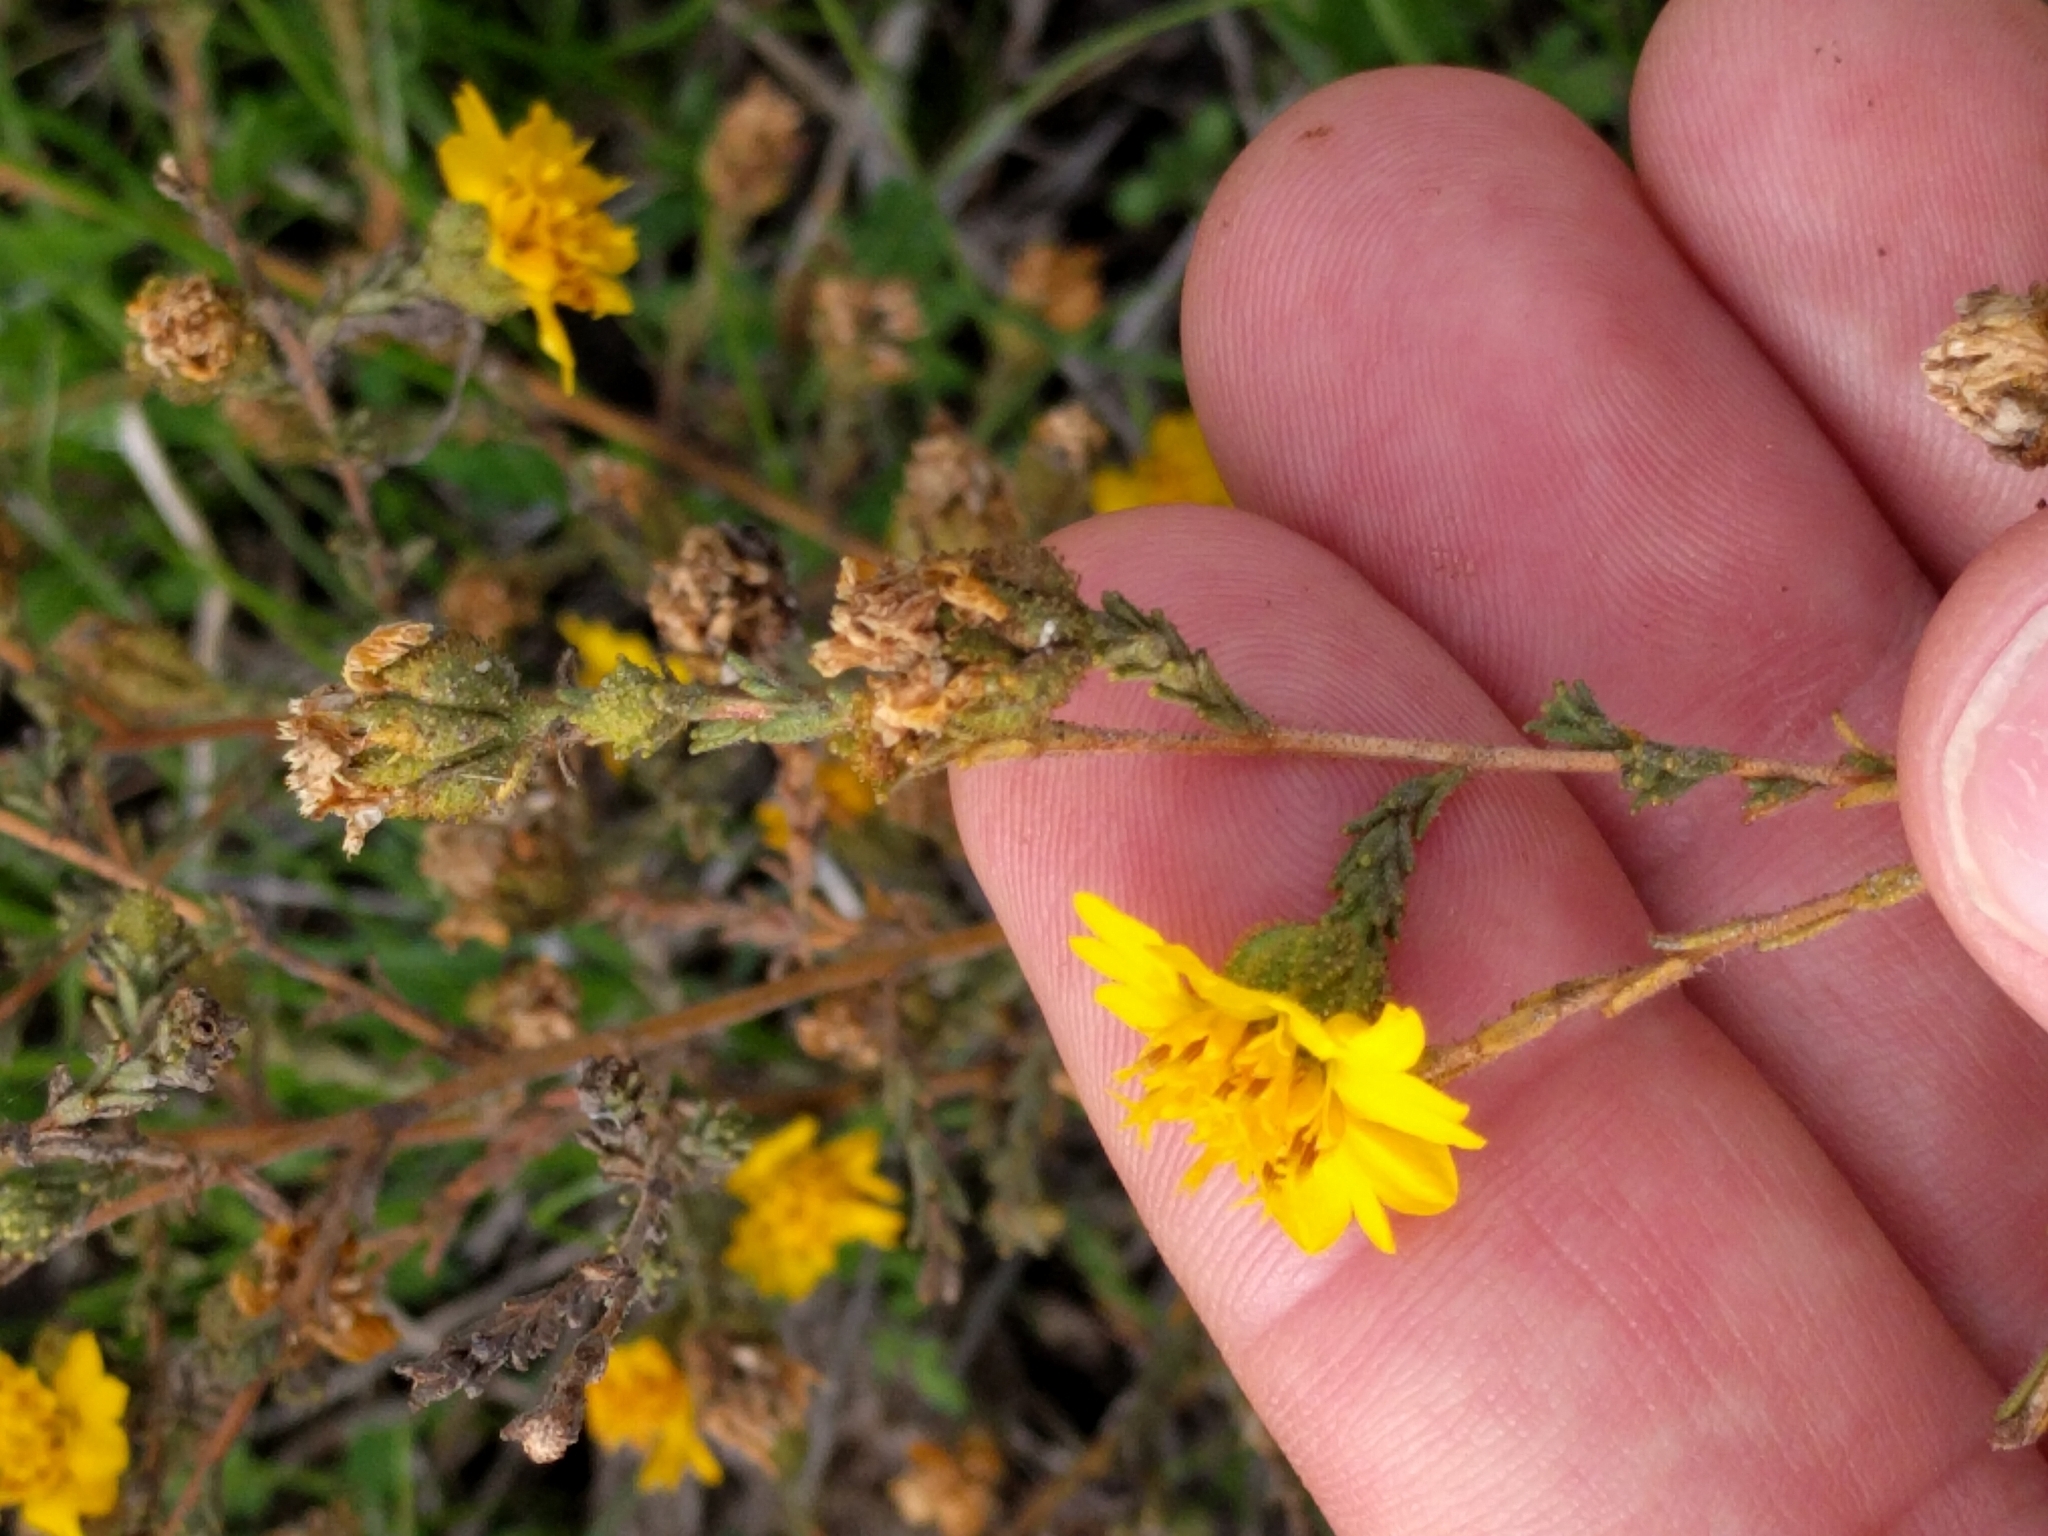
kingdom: Plantae
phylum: Tracheophyta
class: Magnoliopsida
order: Asterales
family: Asteraceae
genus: Holocarpha
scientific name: Holocarpha heermannii
